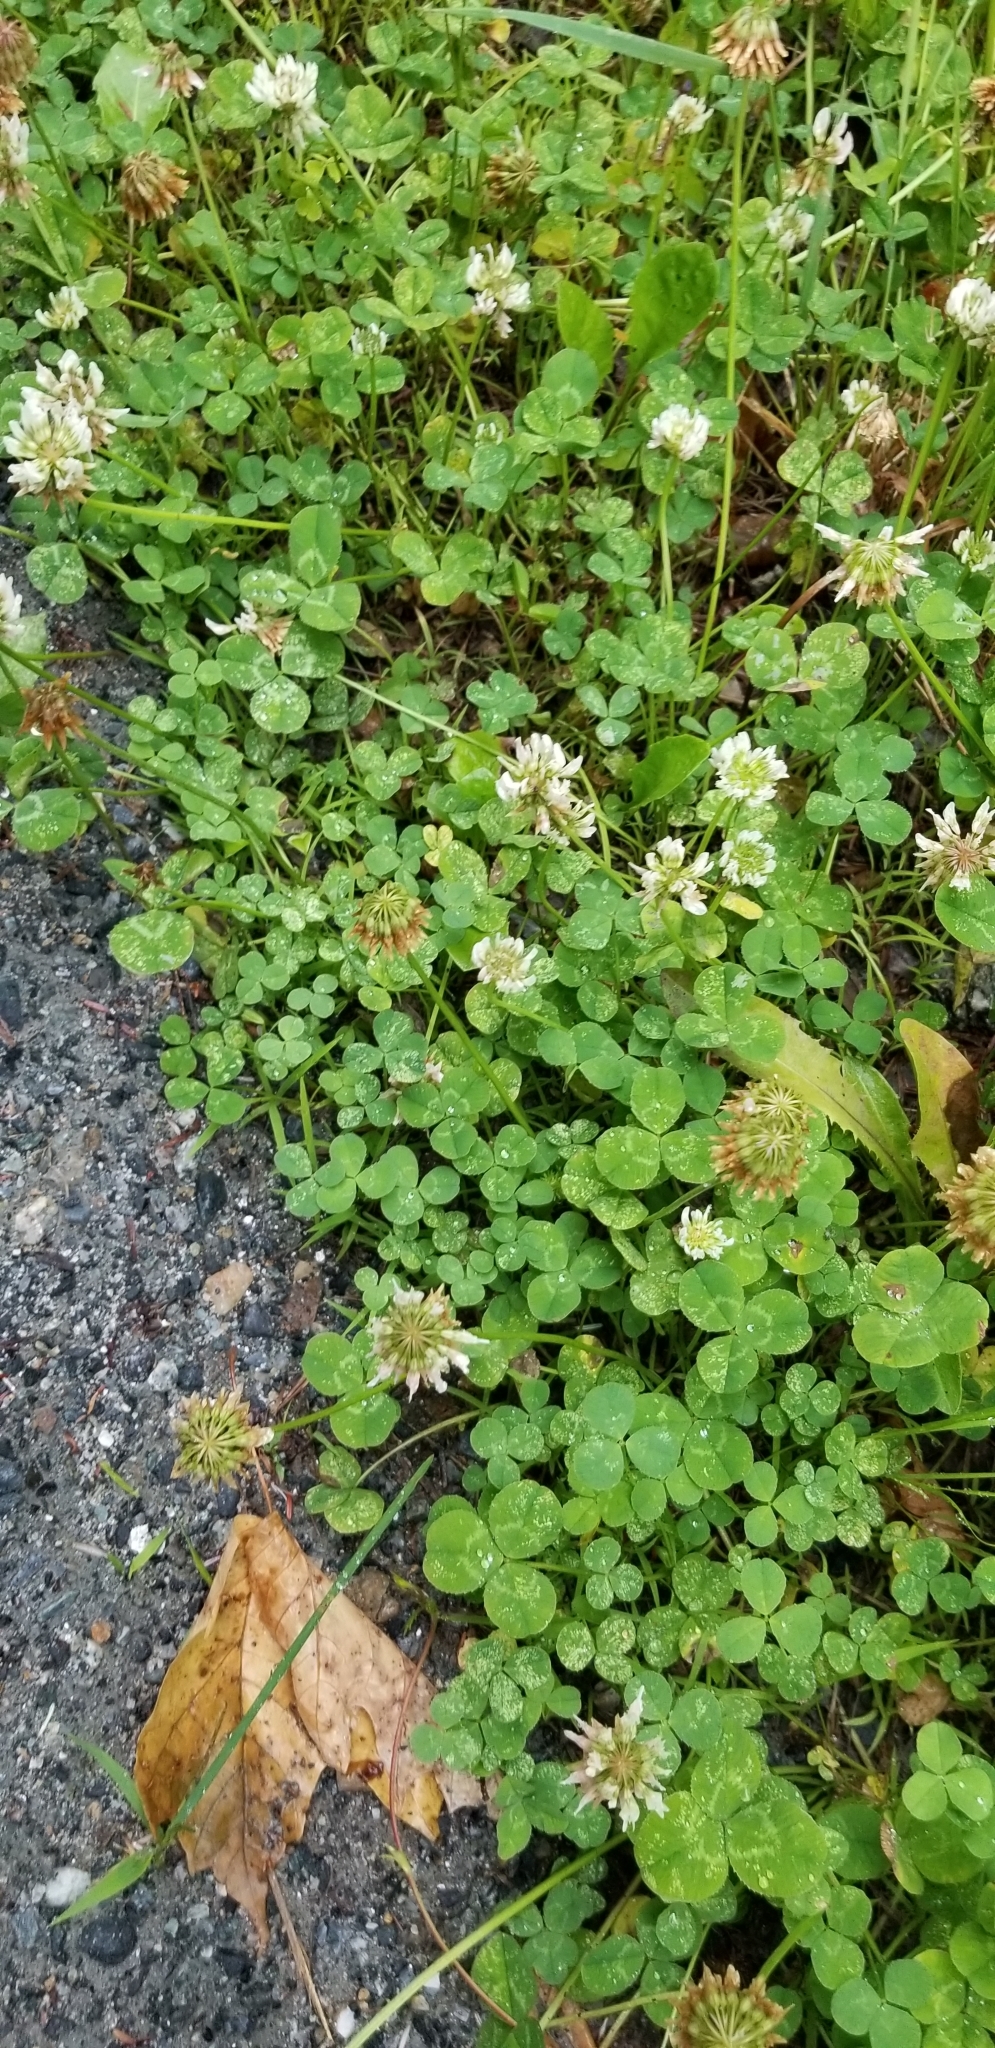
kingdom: Plantae
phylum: Tracheophyta
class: Magnoliopsida
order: Fabales
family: Fabaceae
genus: Trifolium
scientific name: Trifolium repens
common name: White clover
